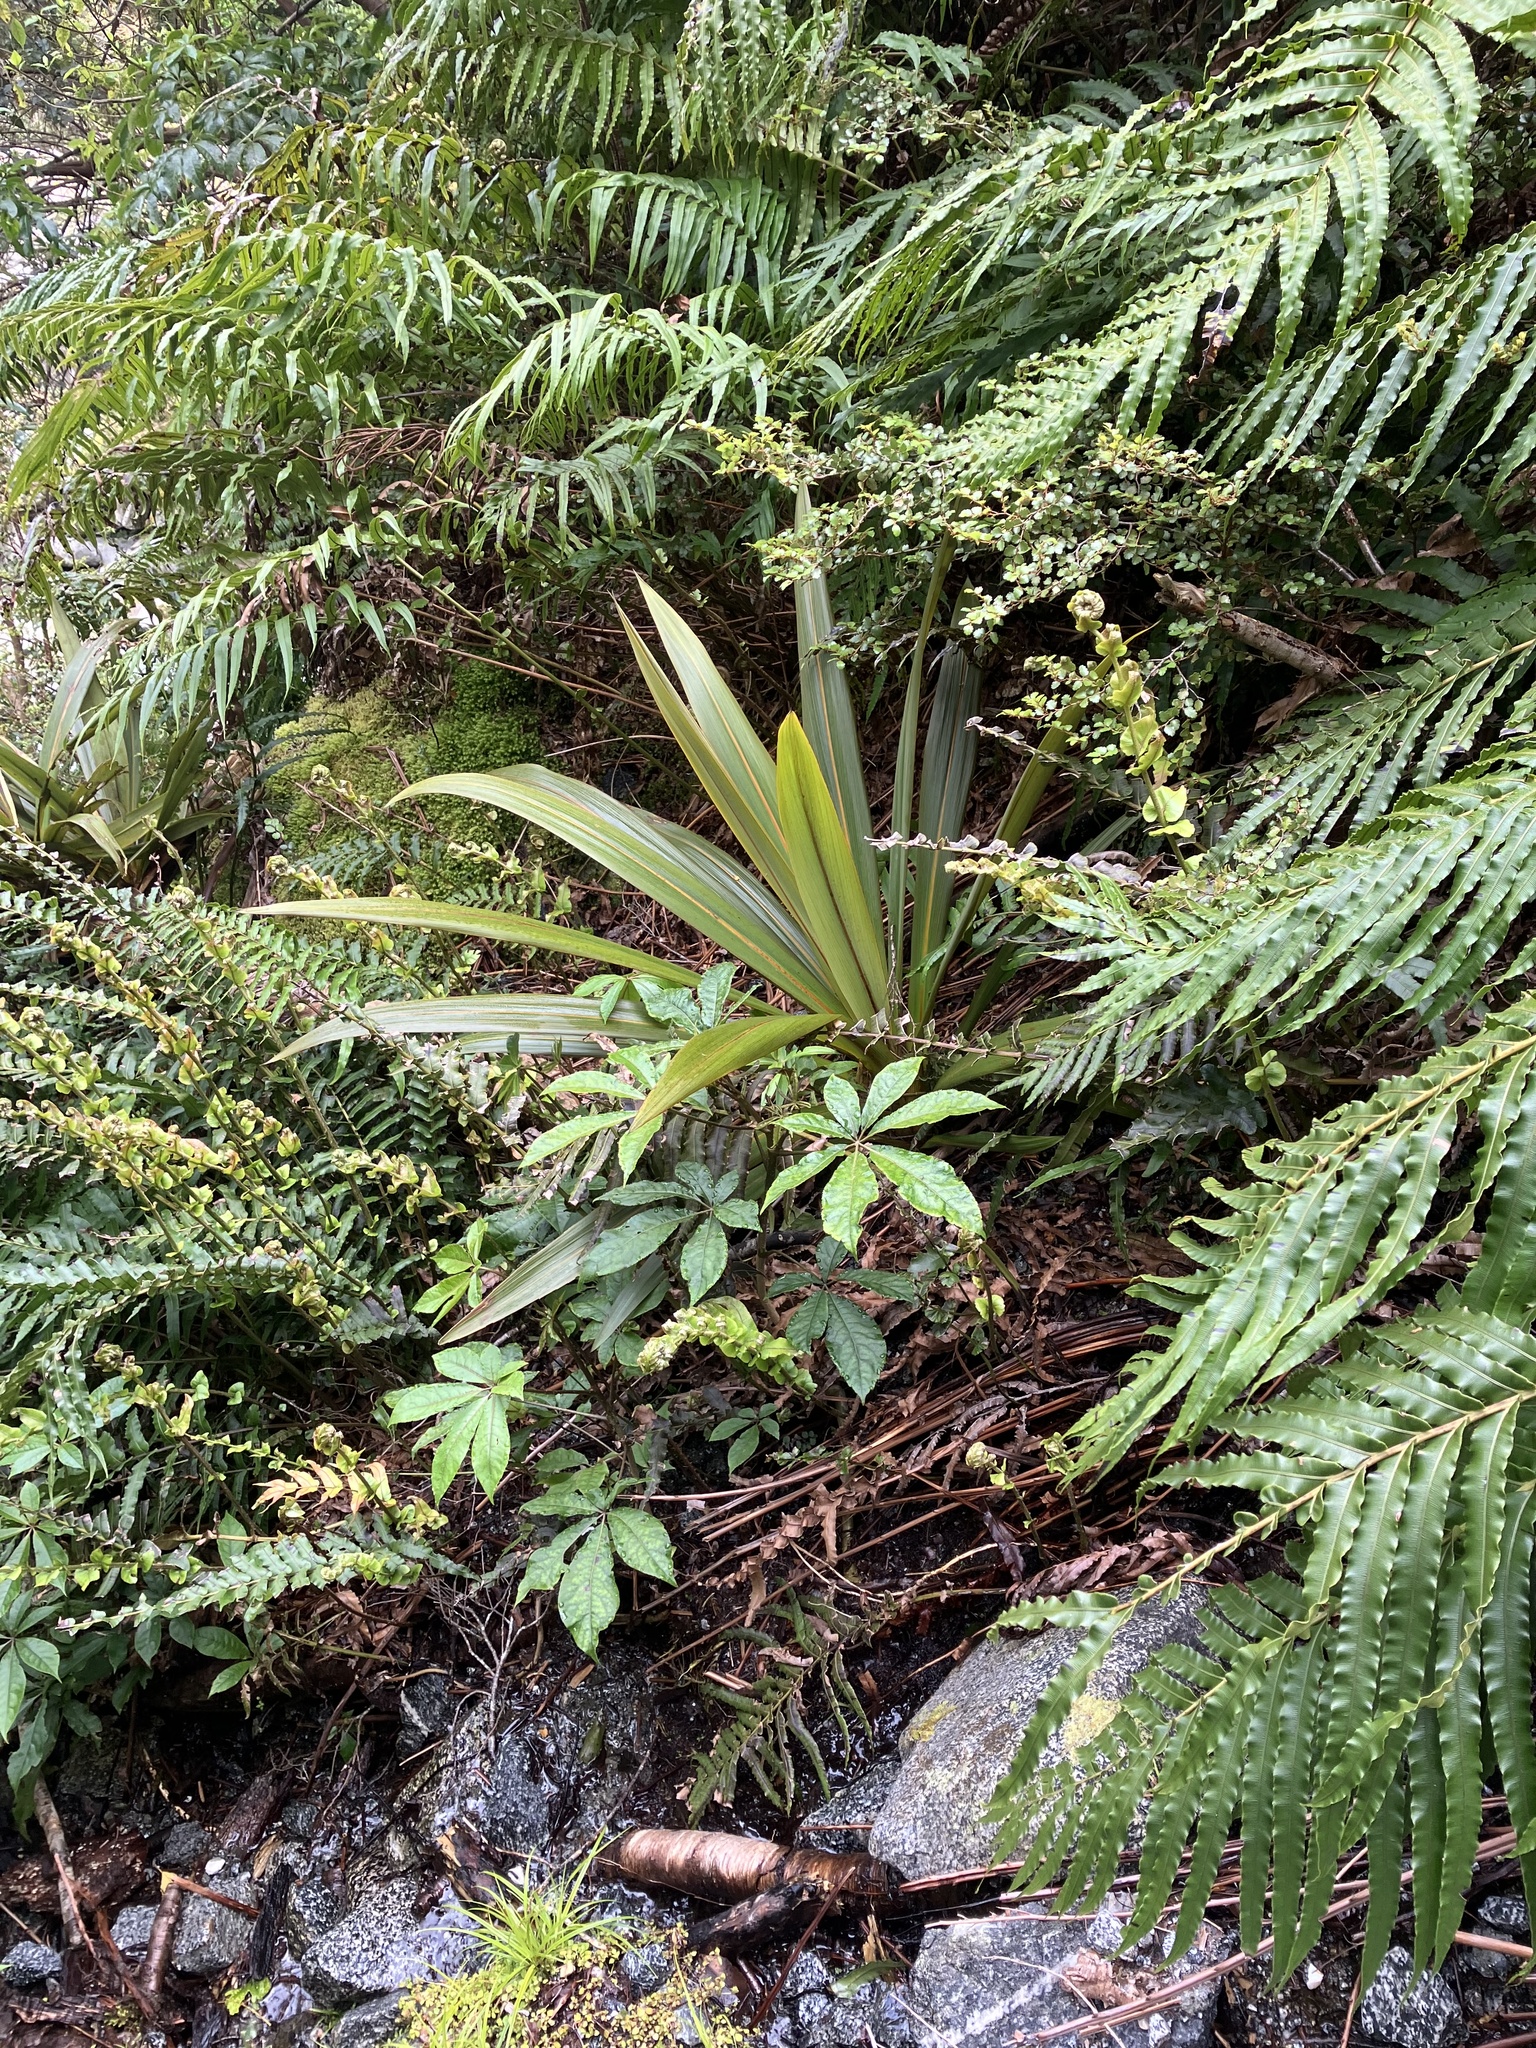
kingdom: Plantae
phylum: Tracheophyta
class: Liliopsida
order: Asparagales
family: Asparagaceae
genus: Cordyline
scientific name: Cordyline indivisa
